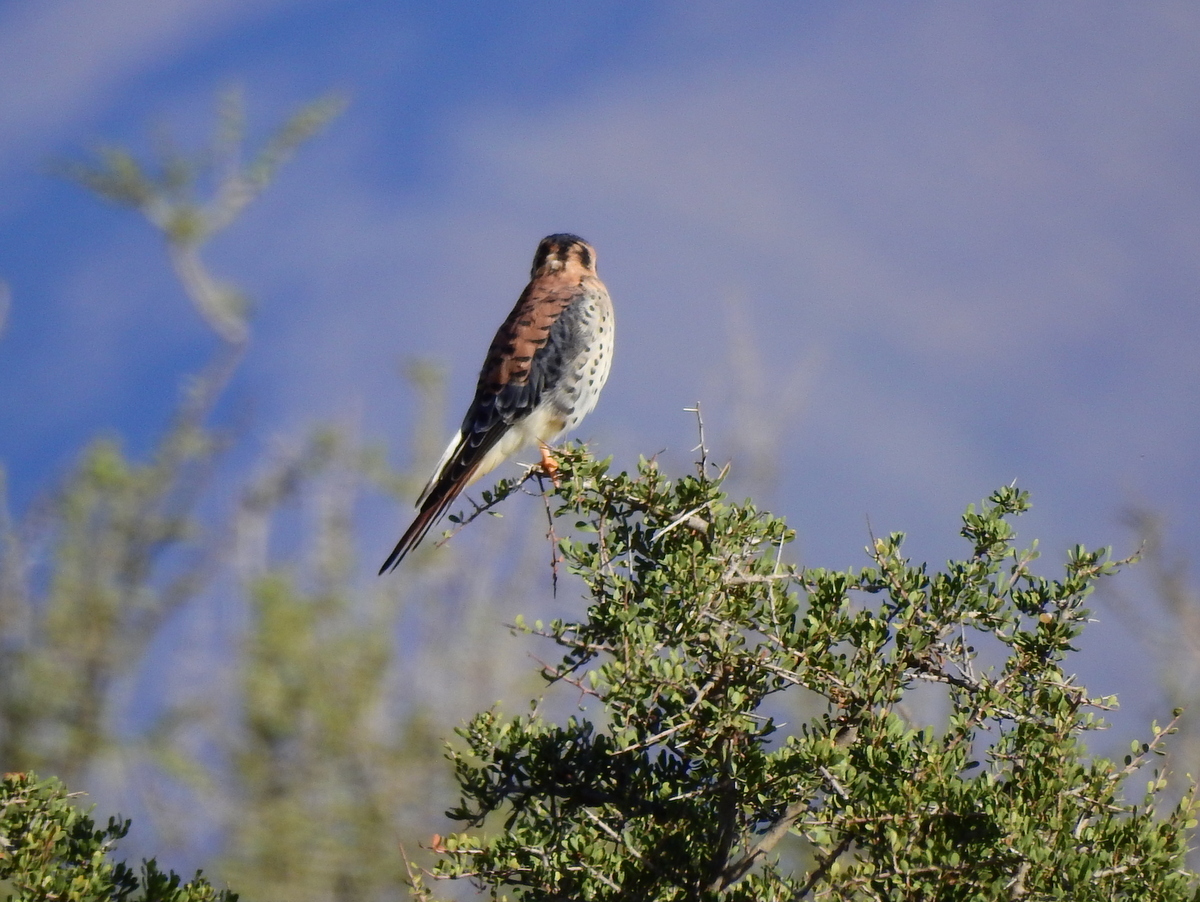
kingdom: Animalia
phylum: Chordata
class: Aves
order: Falconiformes
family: Falconidae
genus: Falco
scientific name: Falco sparverius
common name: American kestrel
